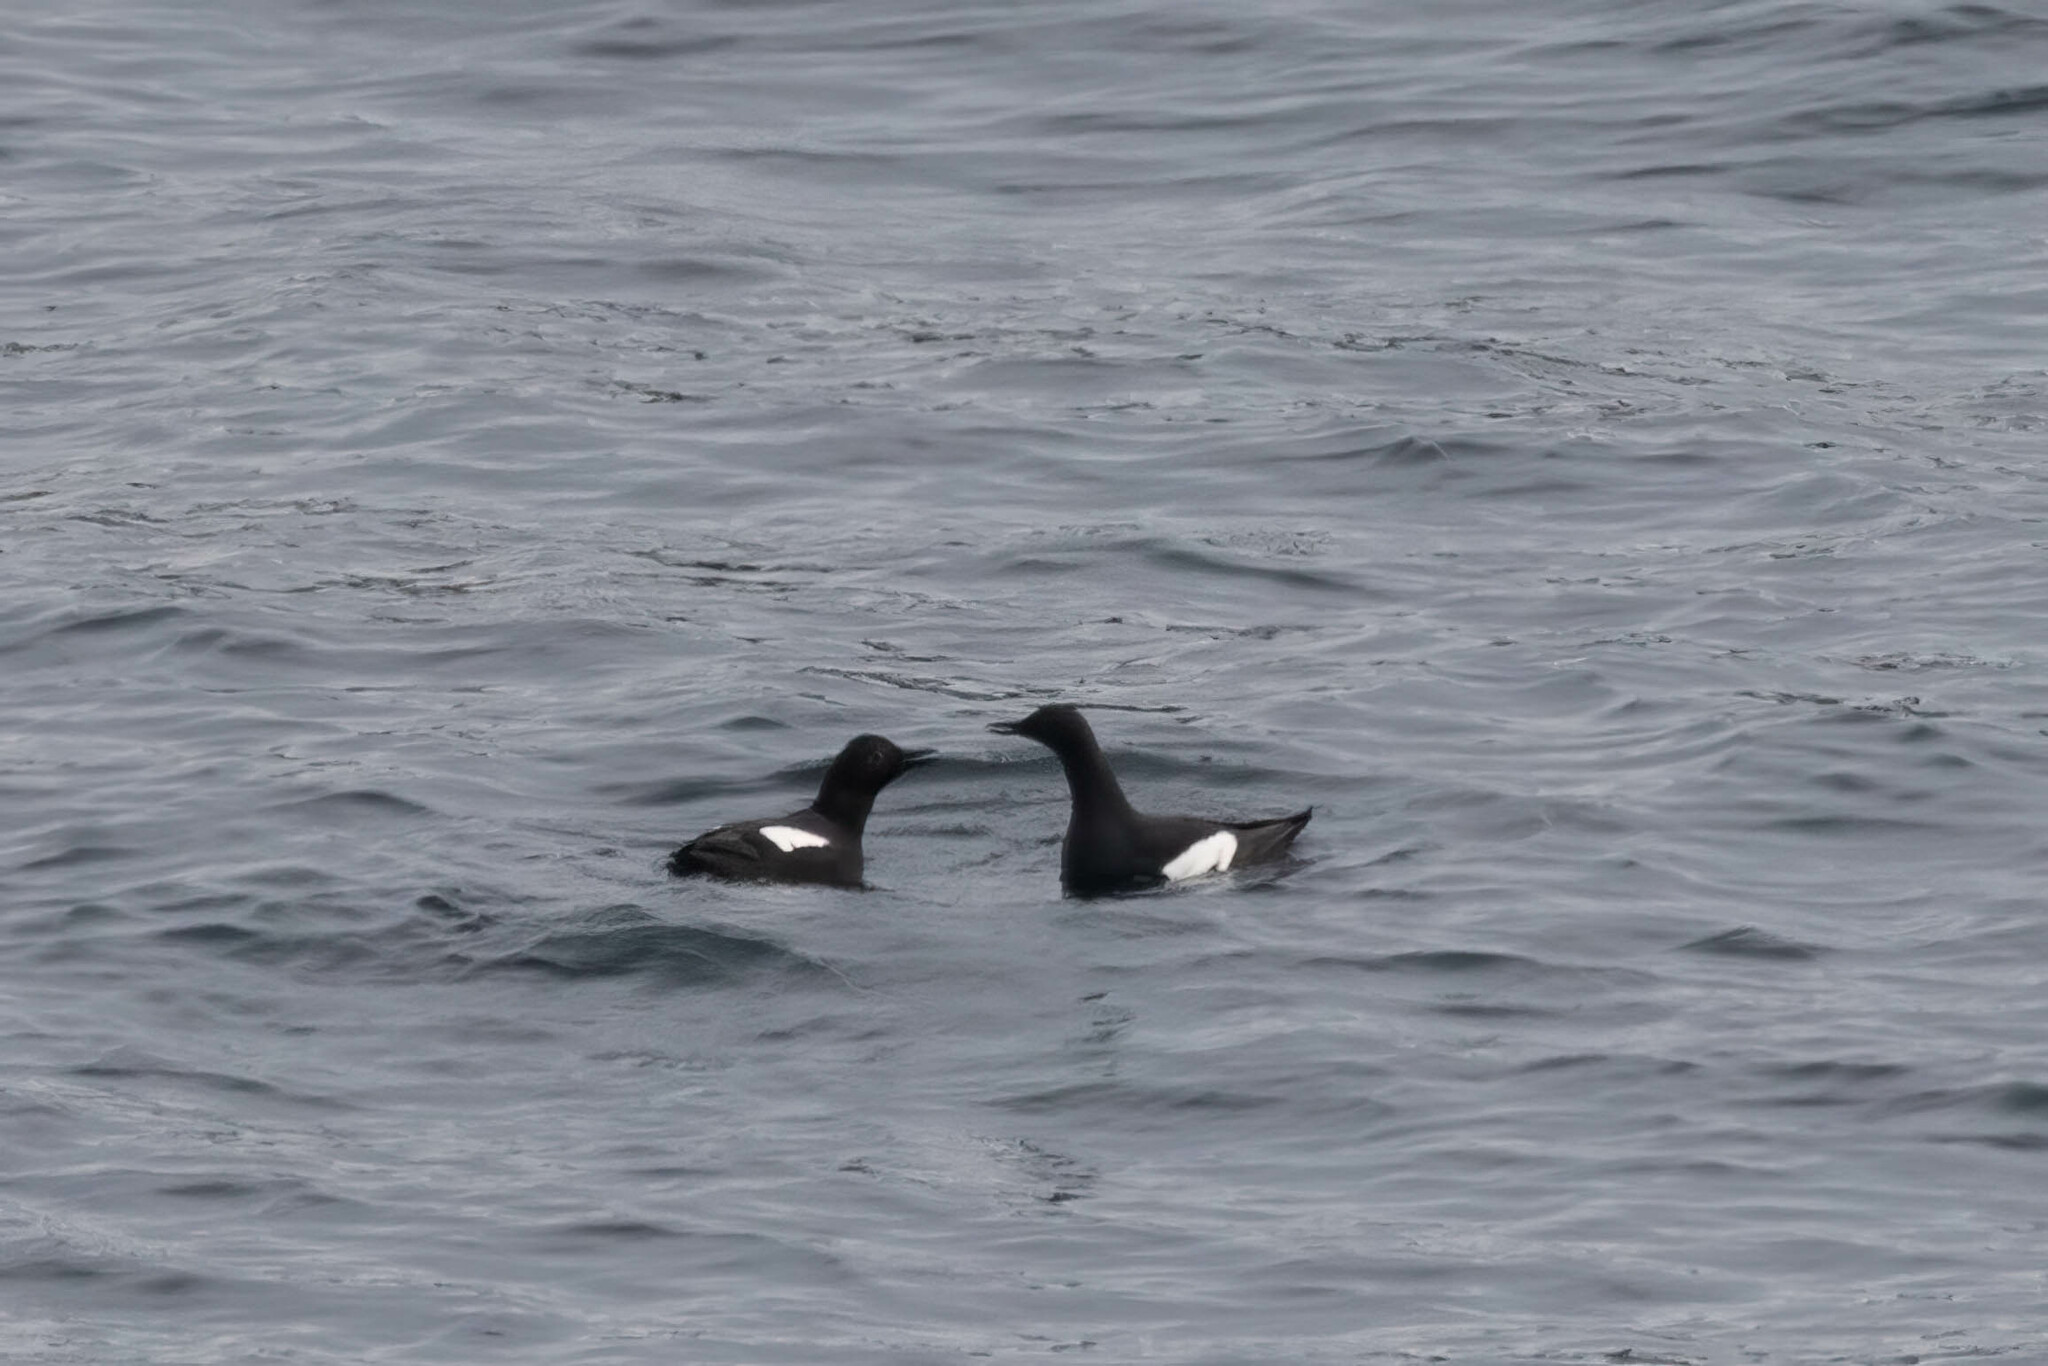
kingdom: Animalia
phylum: Chordata
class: Aves
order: Charadriiformes
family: Alcidae
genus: Cepphus
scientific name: Cepphus columba
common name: Pigeon guillemot
